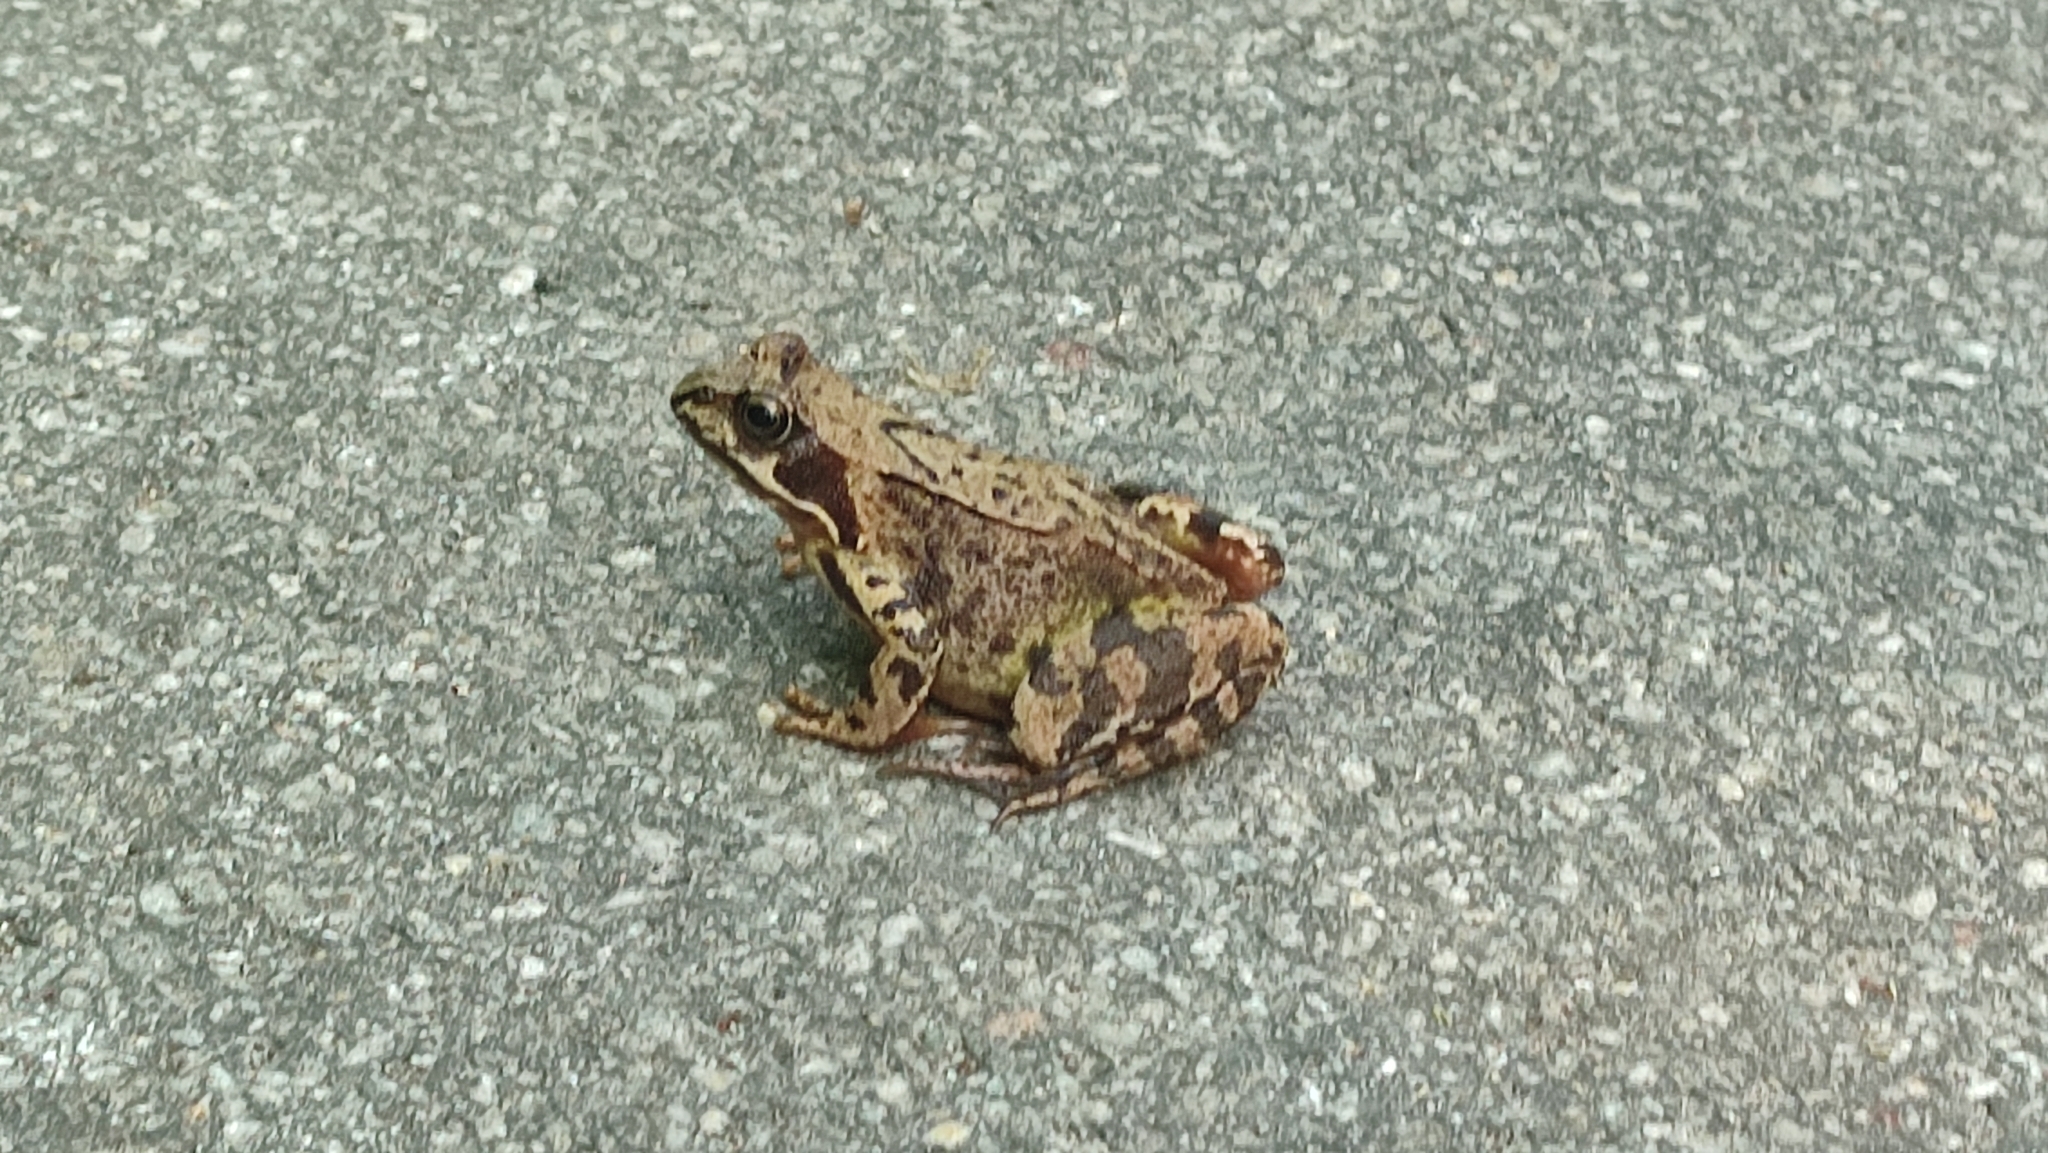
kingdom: Animalia
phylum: Chordata
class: Amphibia
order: Anura
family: Ranidae
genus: Rana
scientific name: Rana temporaria
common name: Common frog
